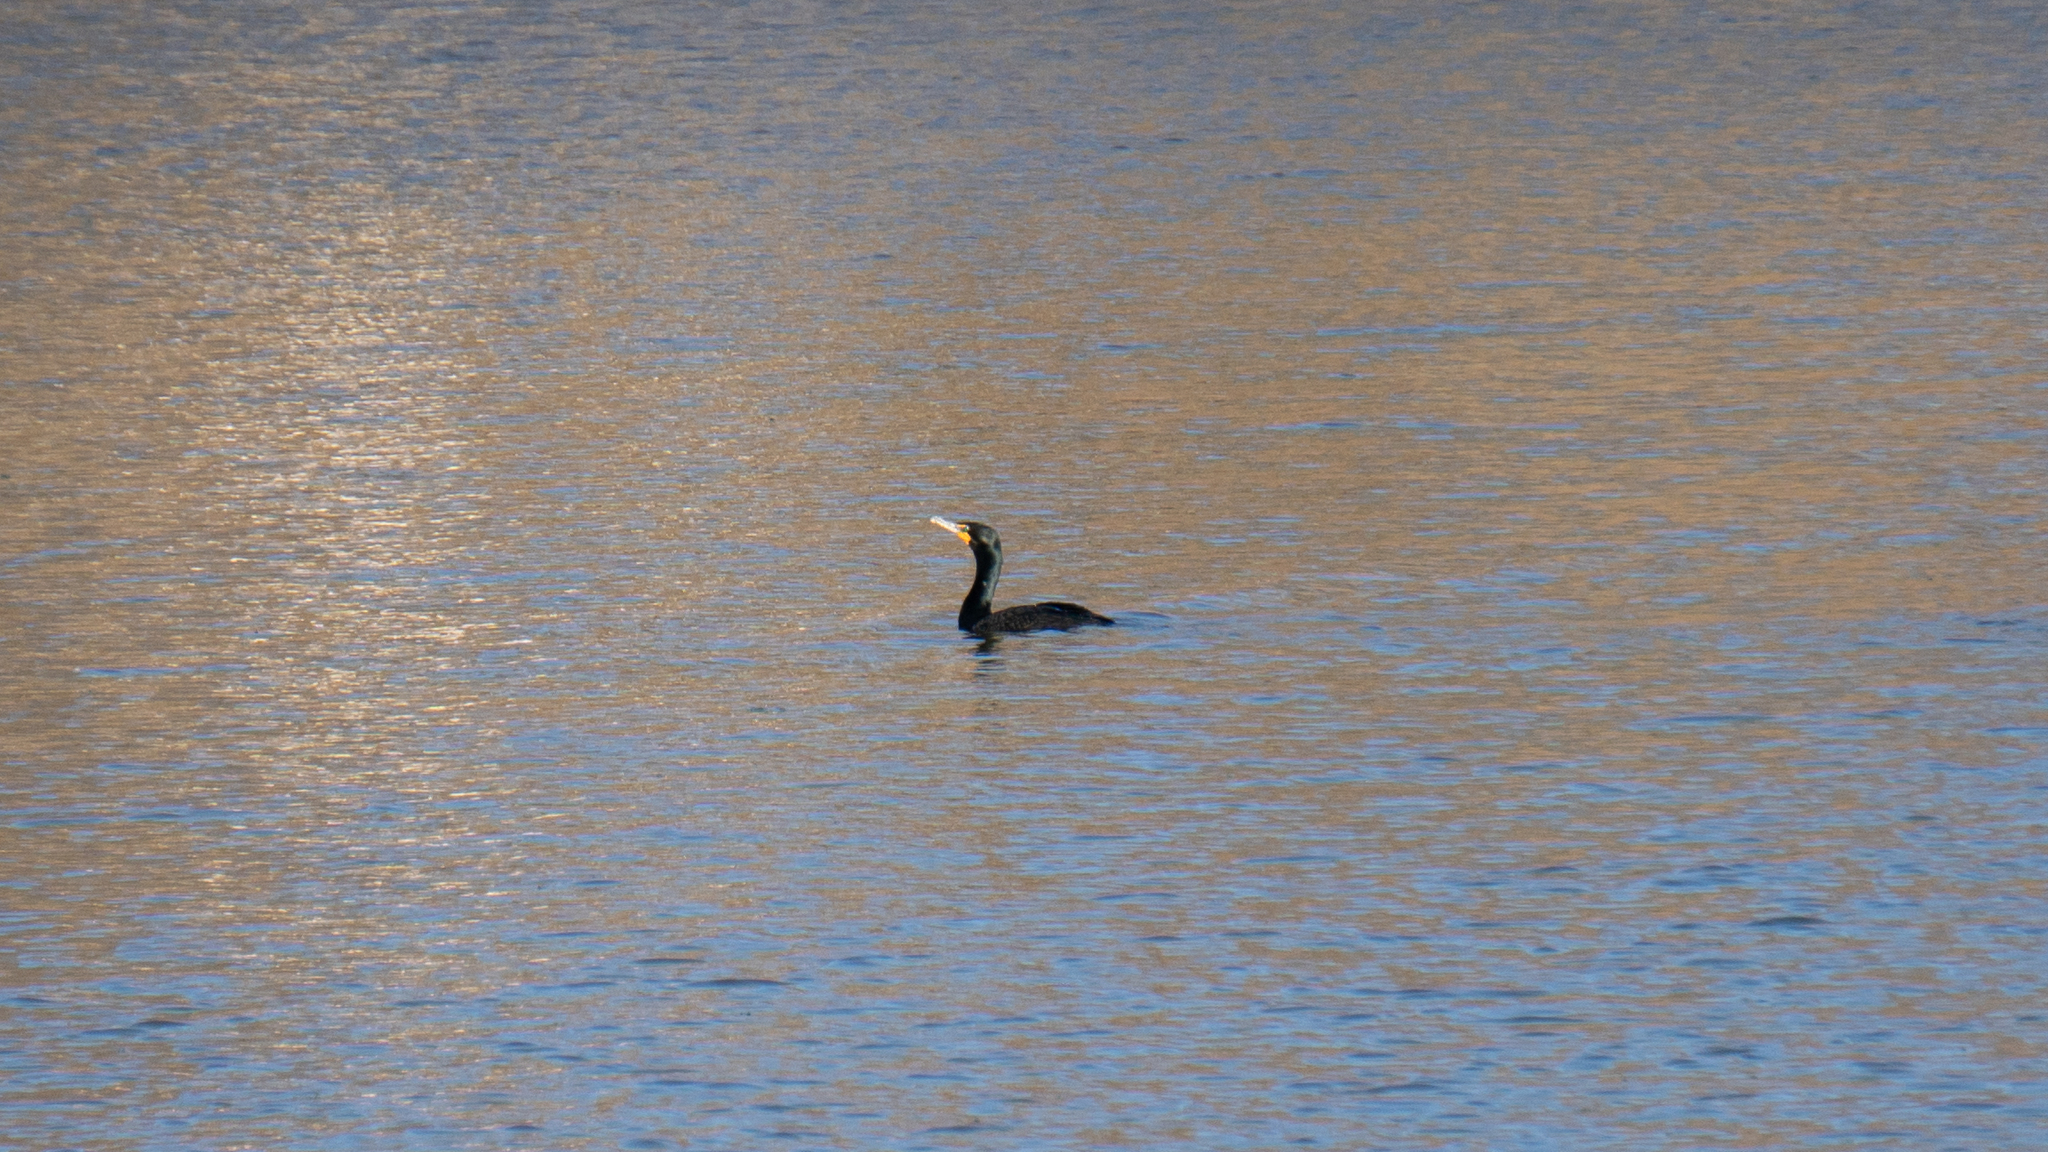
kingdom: Animalia
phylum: Chordata
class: Aves
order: Suliformes
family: Phalacrocoracidae
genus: Phalacrocorax
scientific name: Phalacrocorax auritus
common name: Double-crested cormorant
